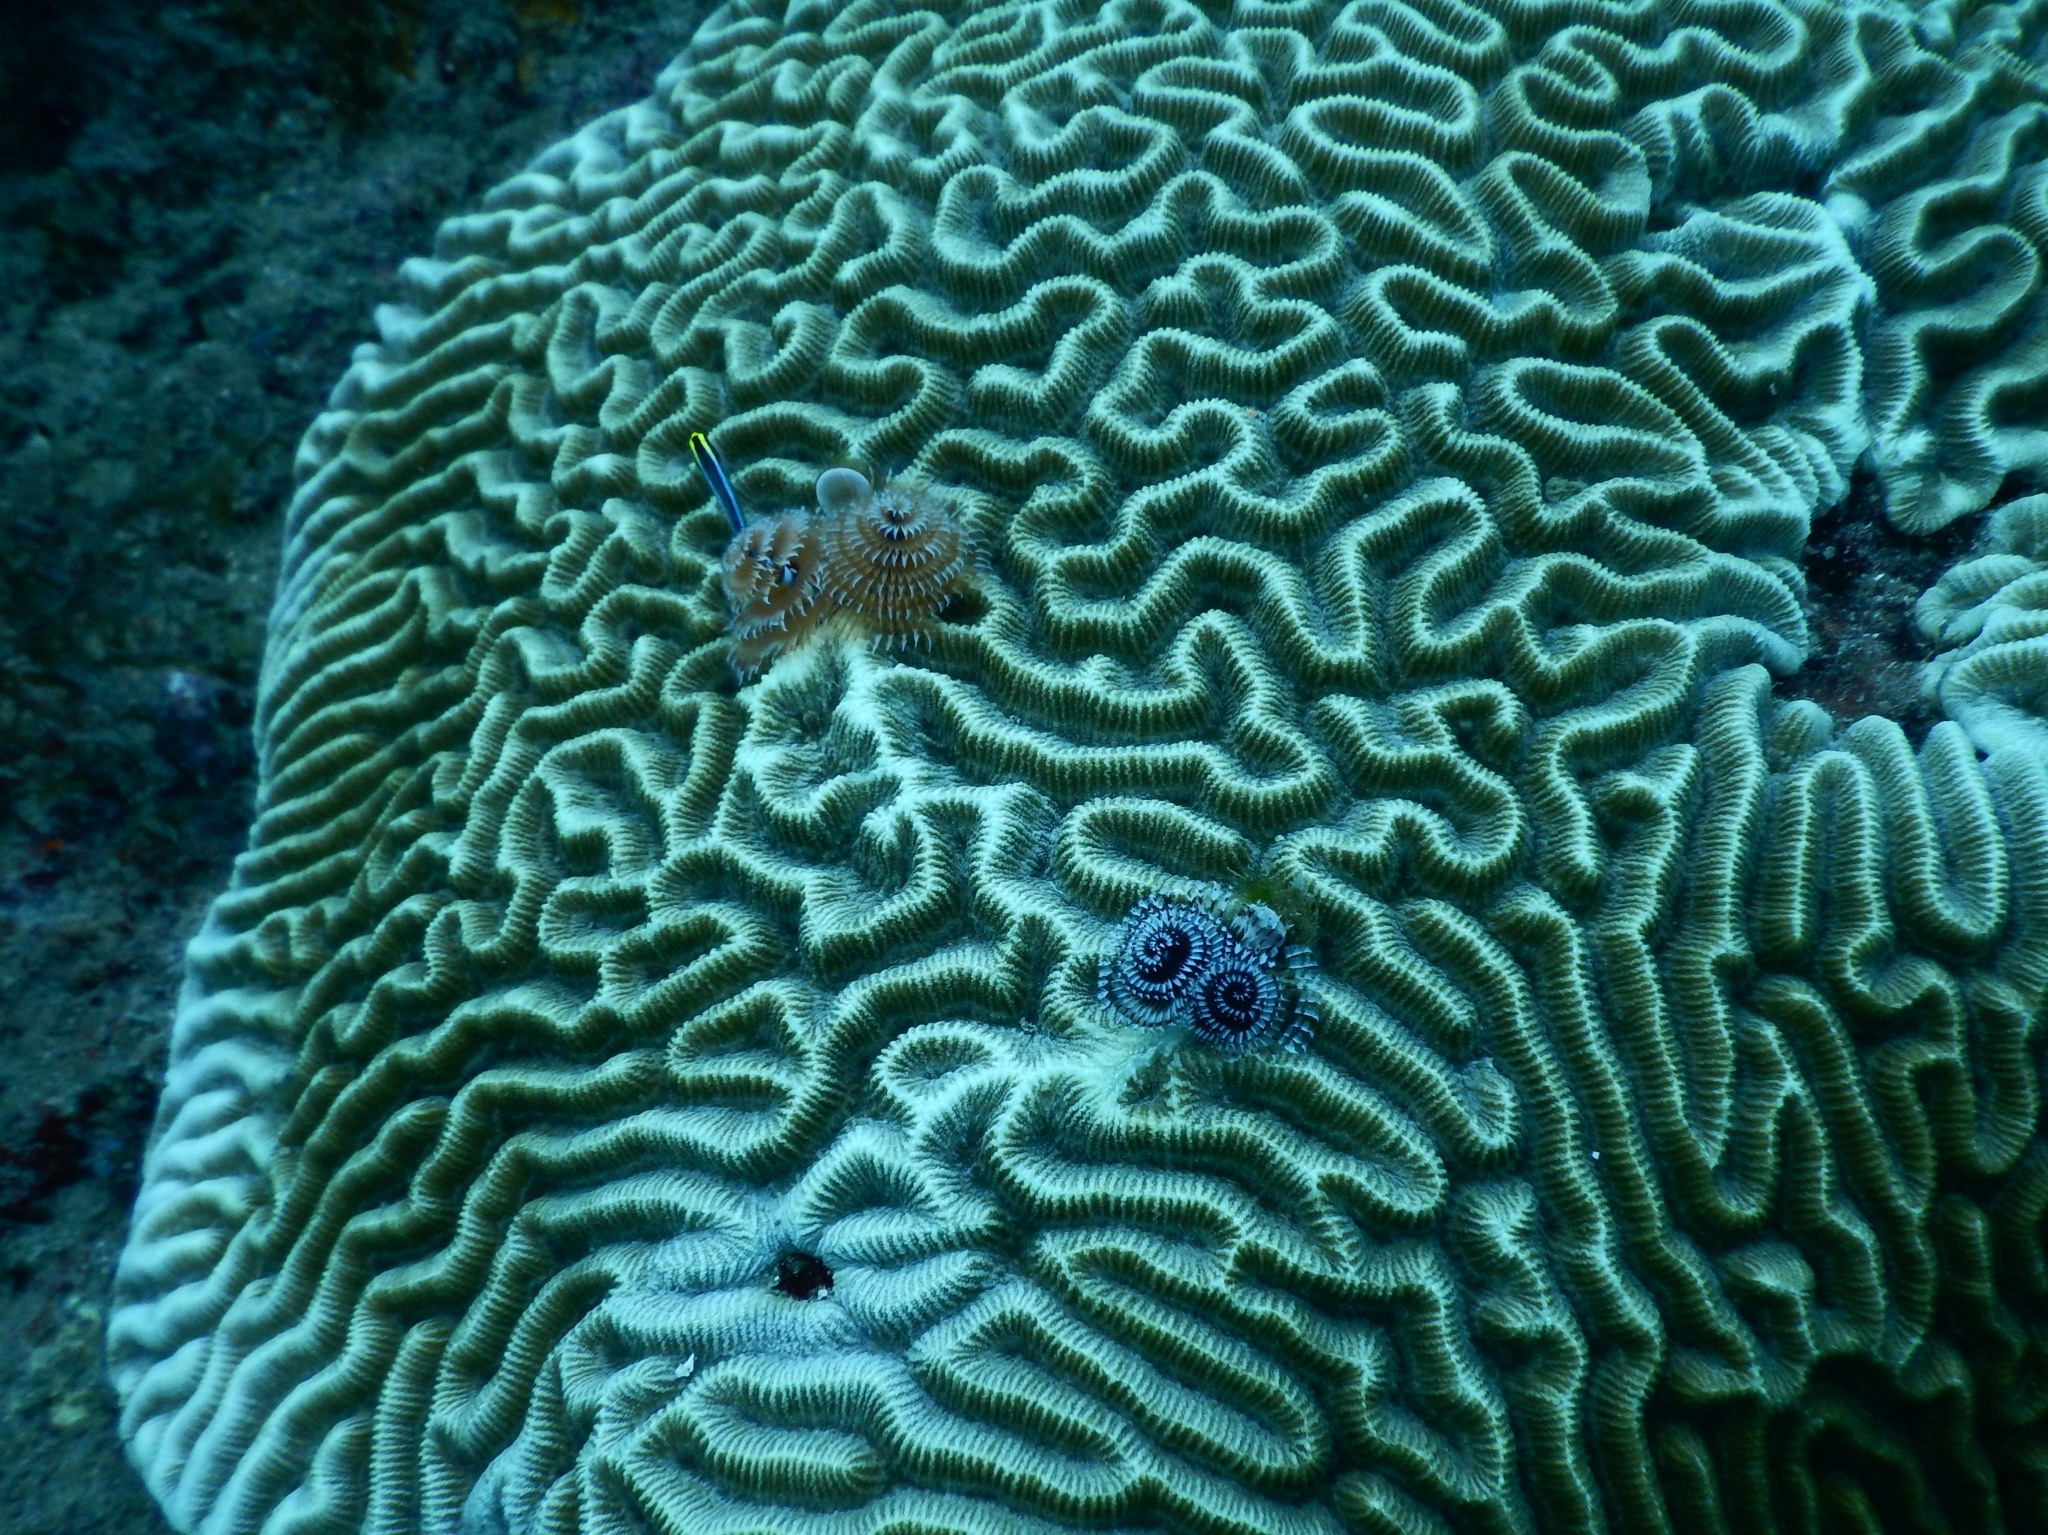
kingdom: Animalia
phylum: Annelida
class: Polychaeta
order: Sabellida
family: Serpulidae
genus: Spirobranchus
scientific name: Spirobranchus giganteus
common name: Christmas tree worm
